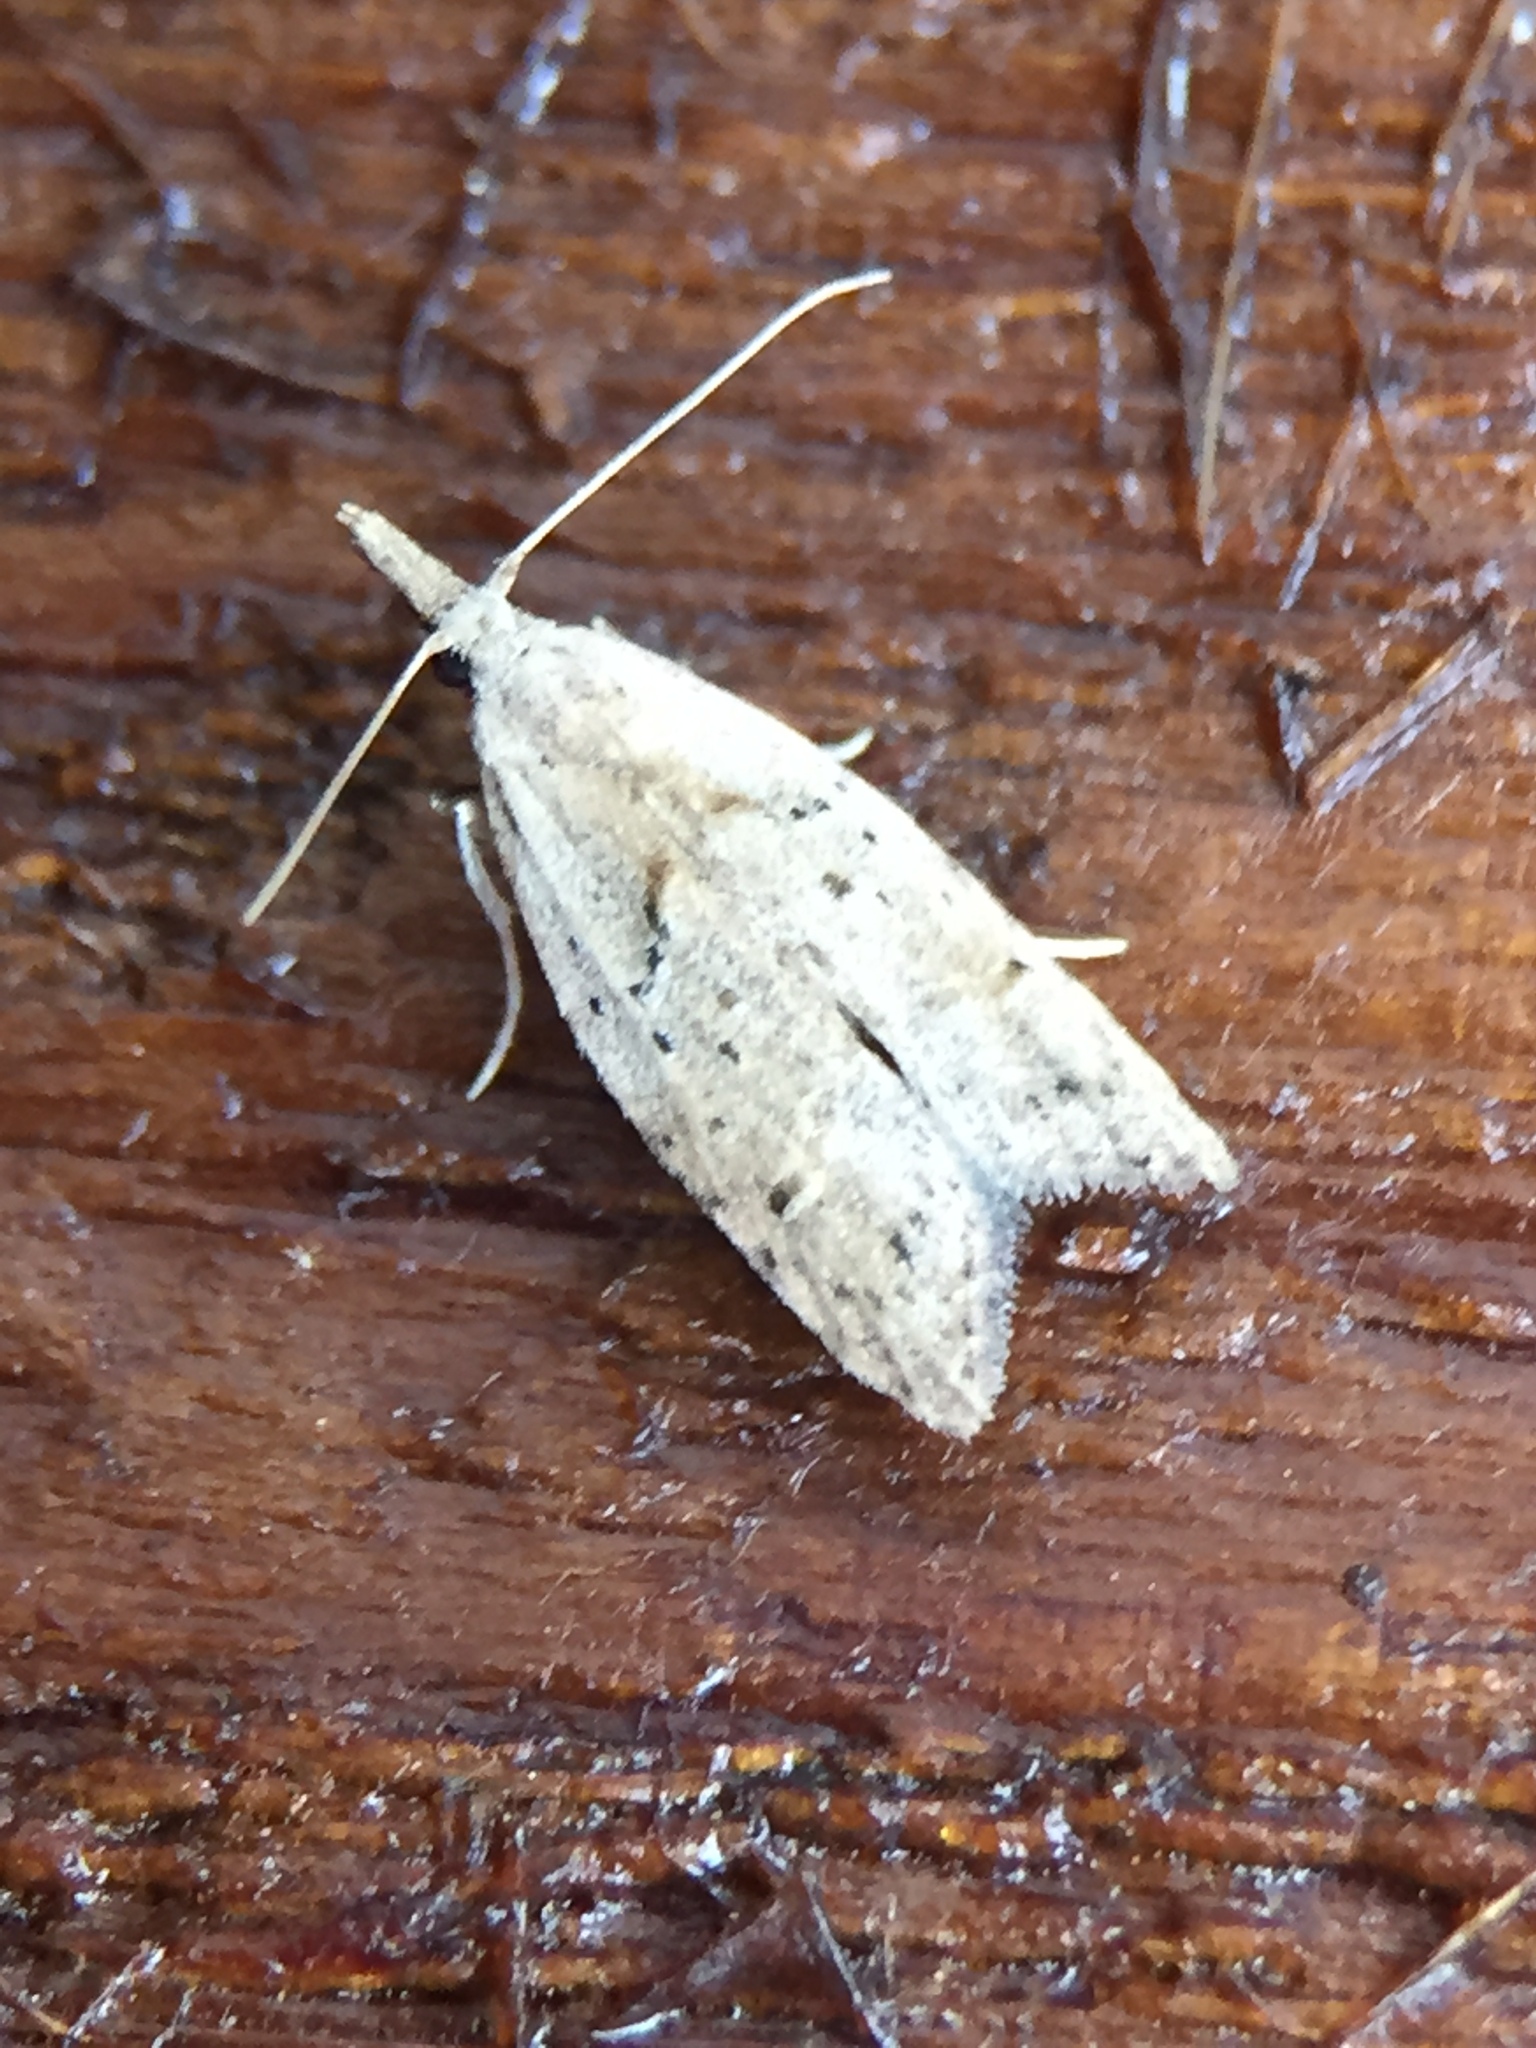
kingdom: Animalia
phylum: Arthropoda
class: Insecta
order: Lepidoptera
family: Carposinidae
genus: Carposina
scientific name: Carposina rubophaga
